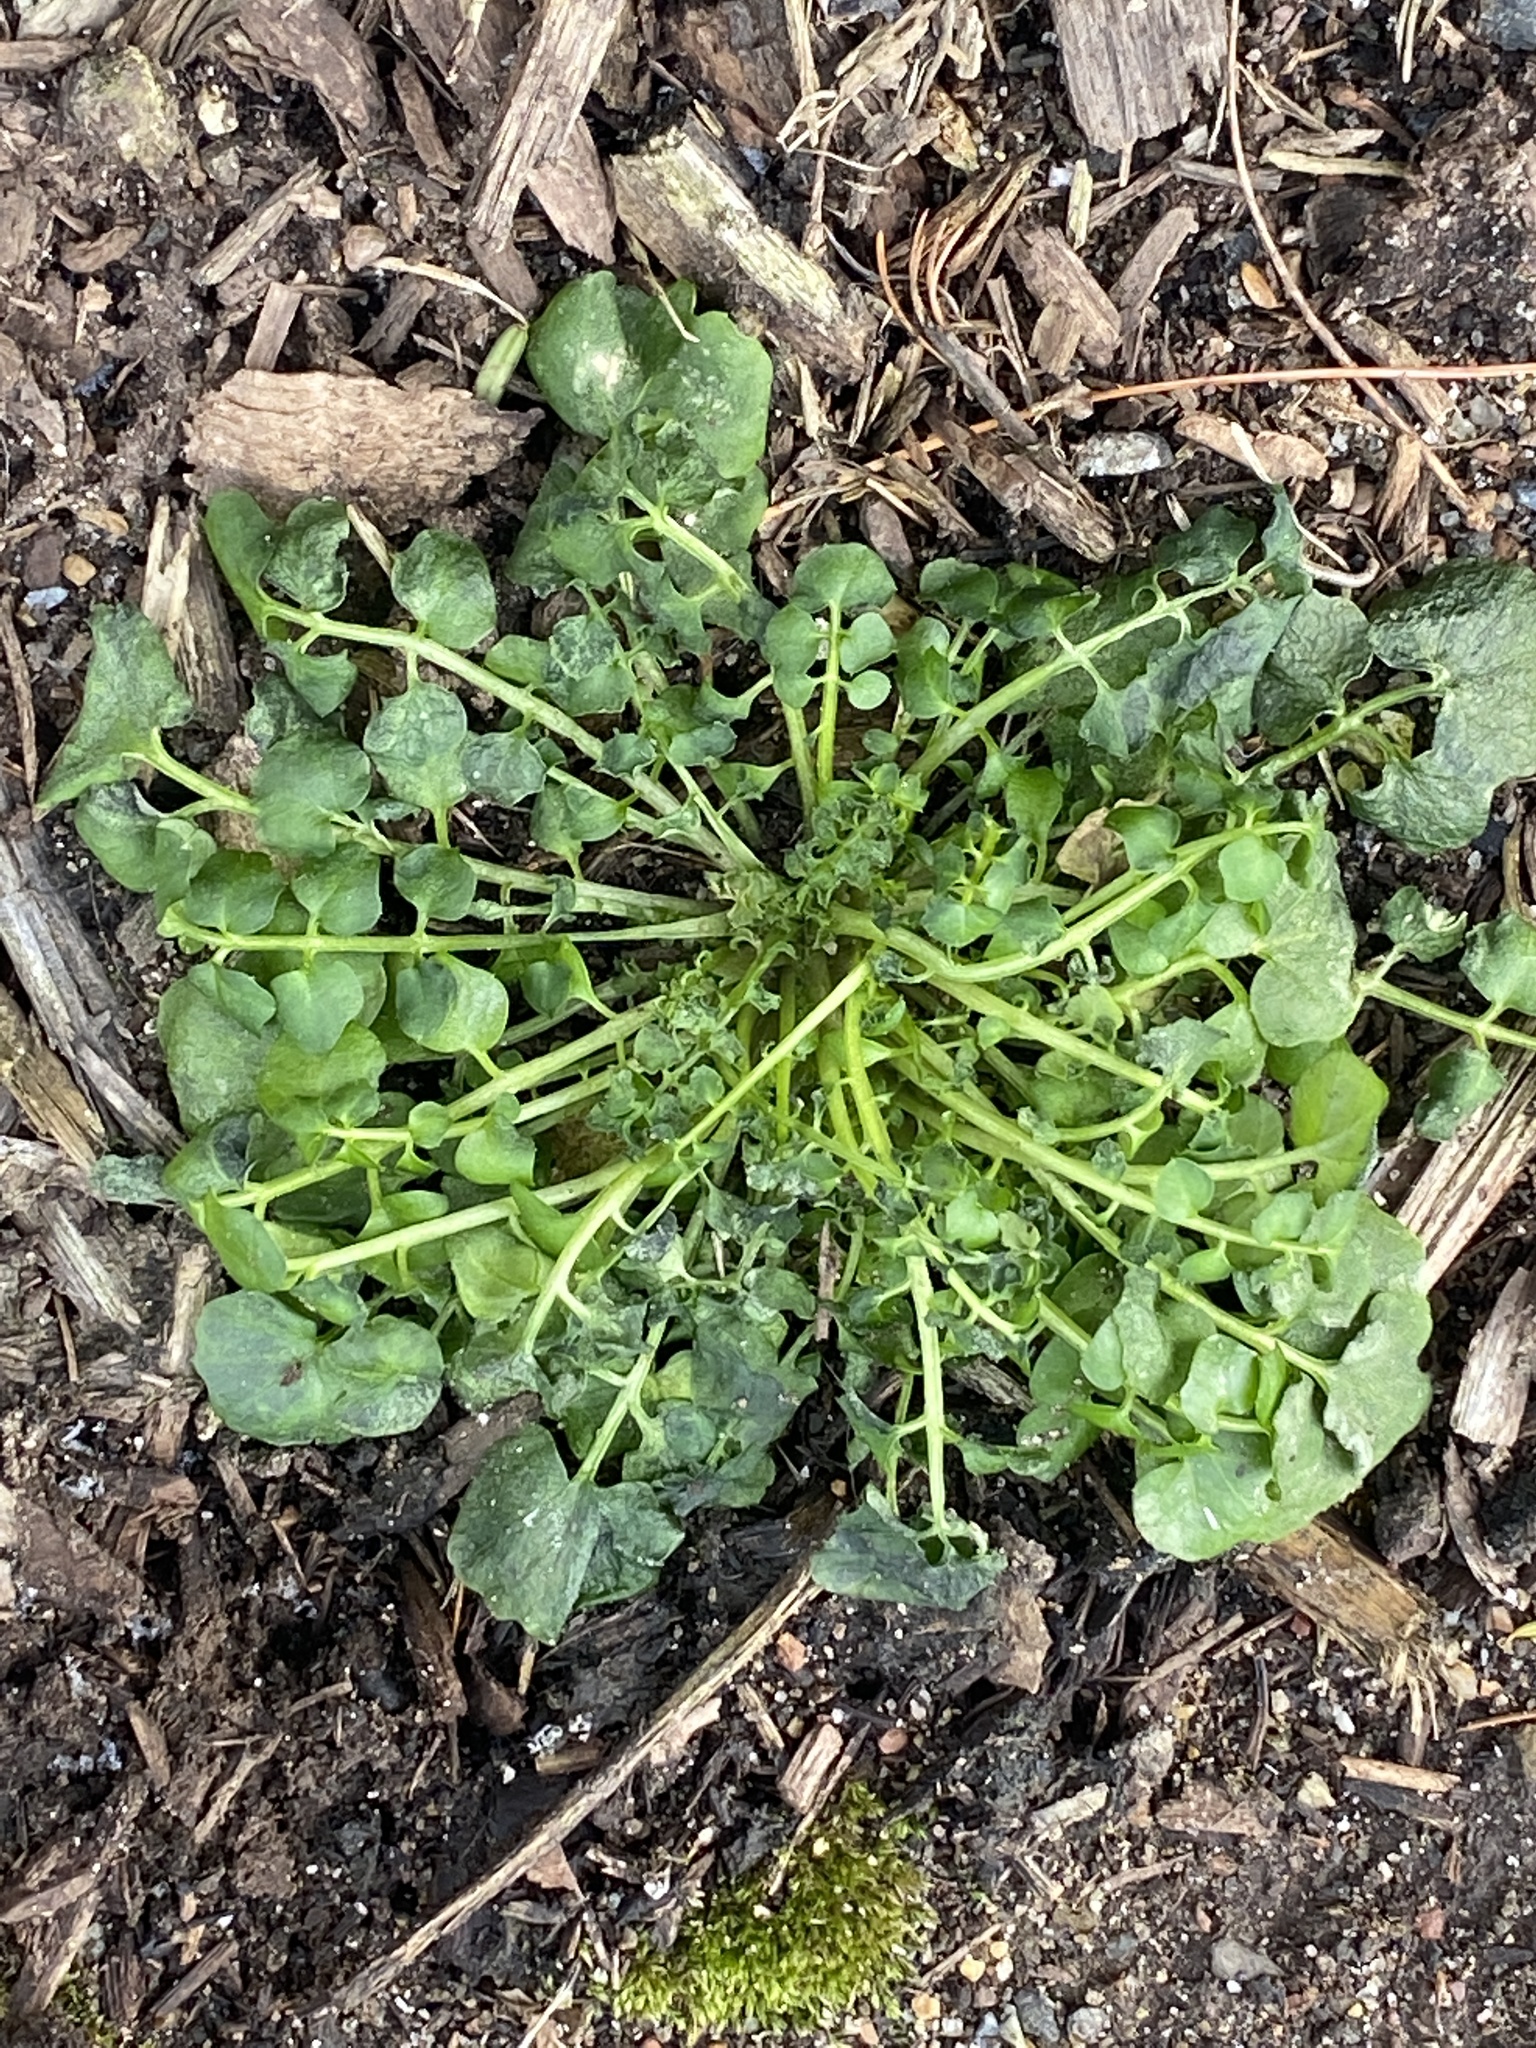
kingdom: Plantae
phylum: Tracheophyta
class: Magnoliopsida
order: Brassicales
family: Brassicaceae
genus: Cardamine
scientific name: Cardamine hirsuta
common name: Hairy bittercress
